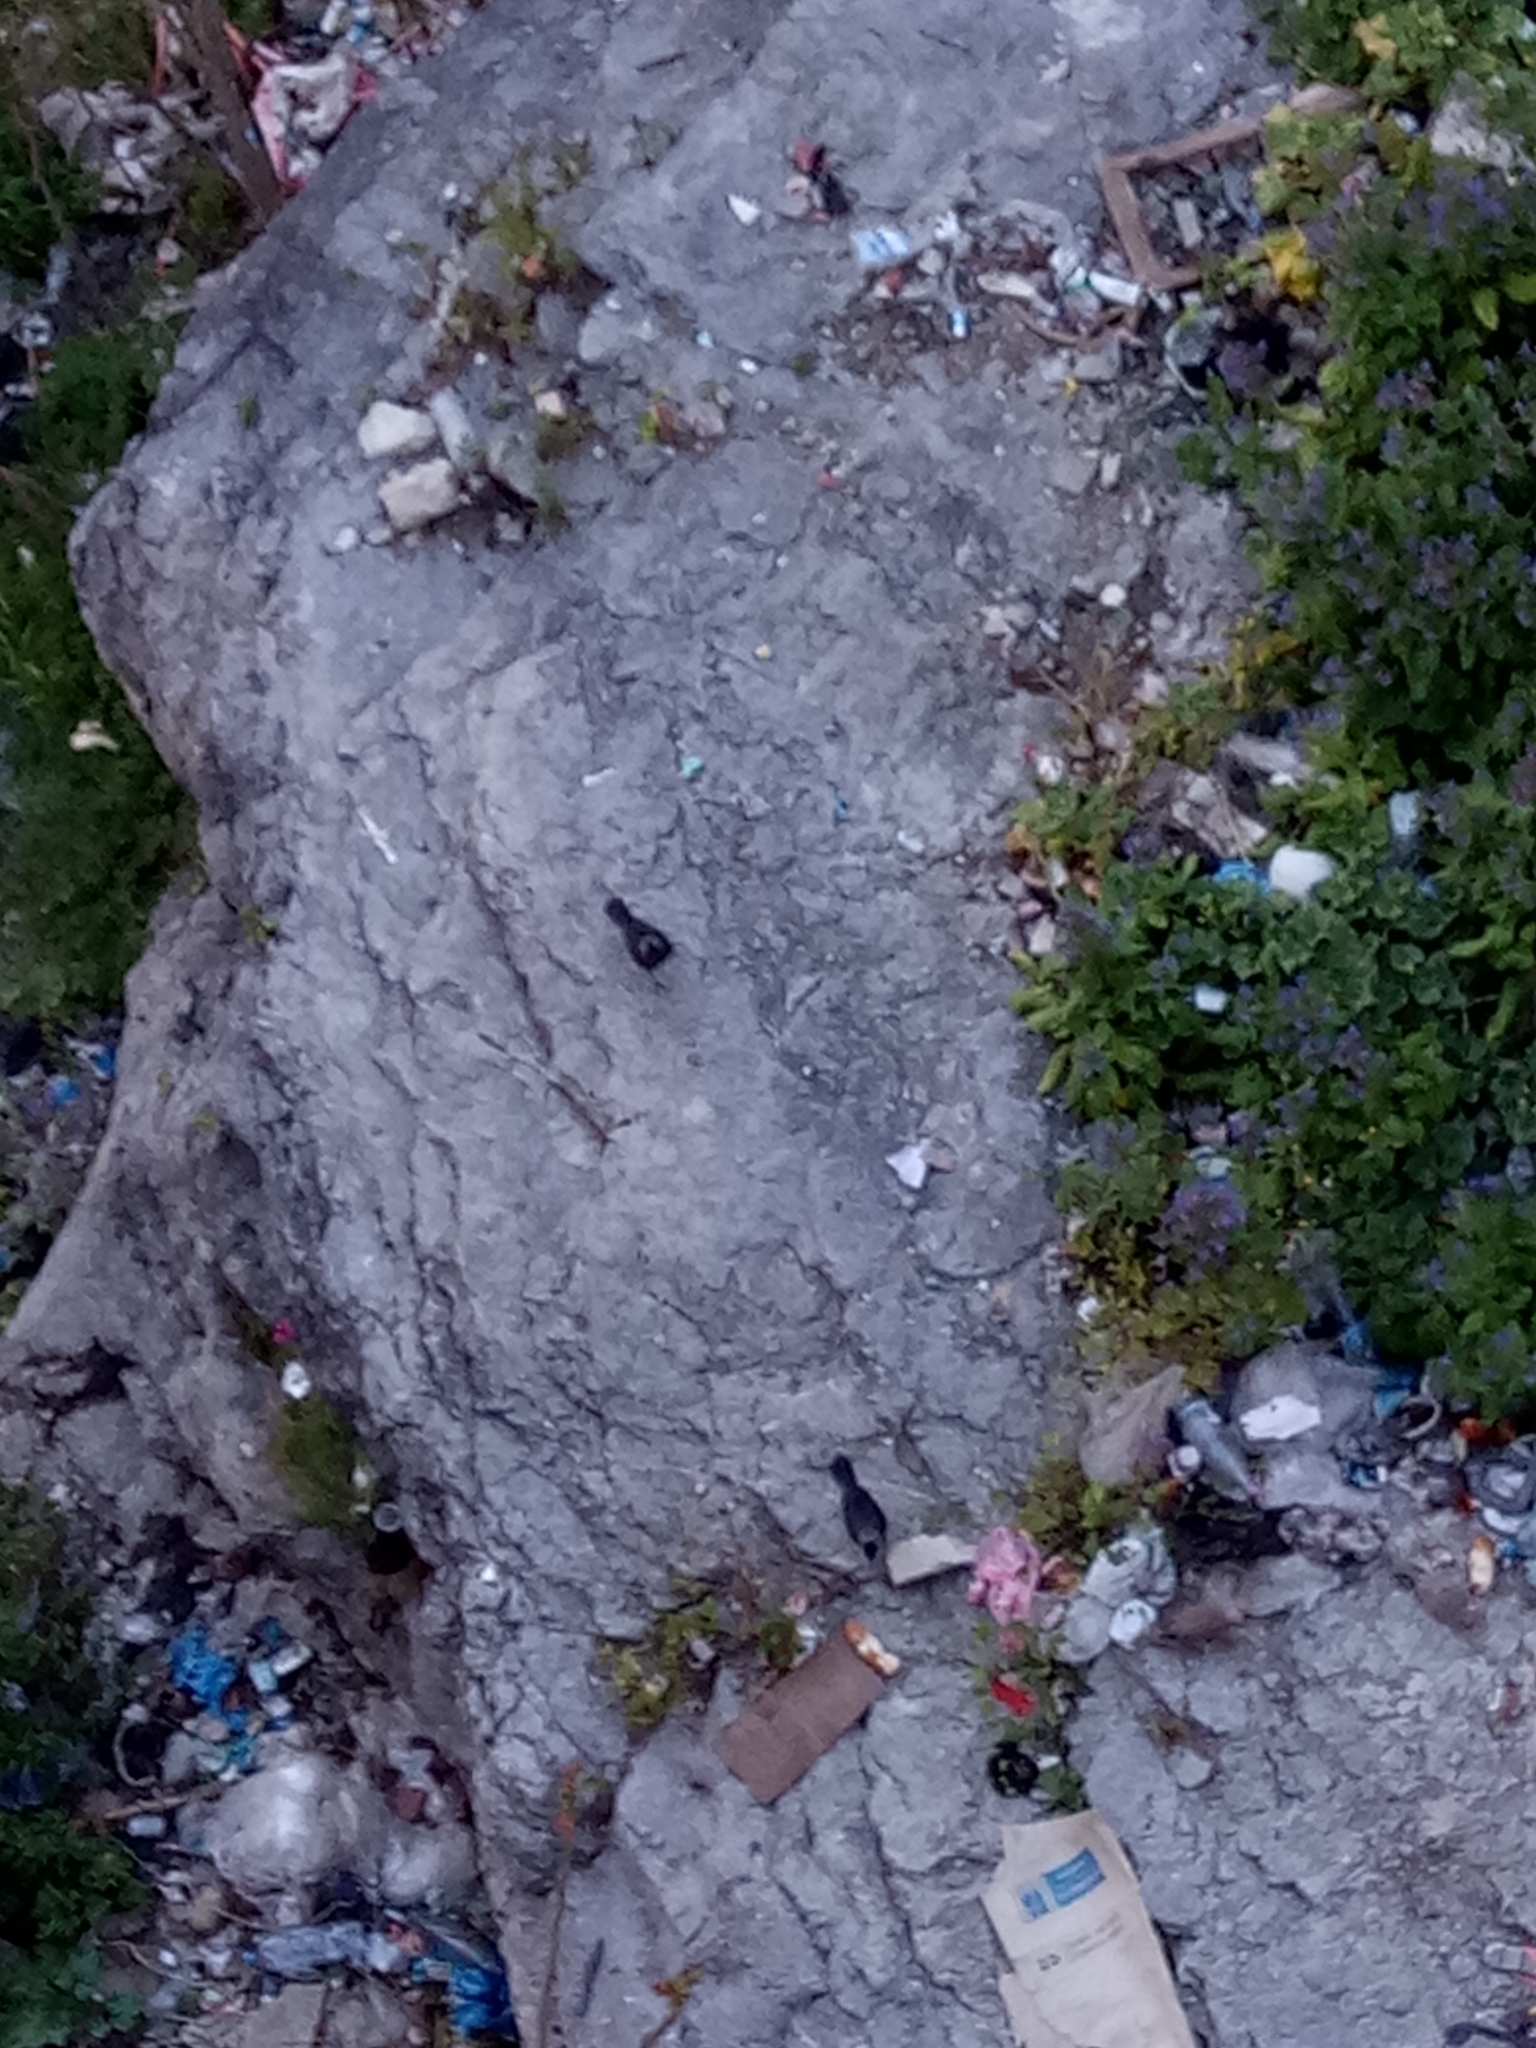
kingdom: Animalia
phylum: Chordata
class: Aves
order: Passeriformes
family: Corvidae
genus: Coloeus
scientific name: Coloeus monedula
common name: Western jackdaw
